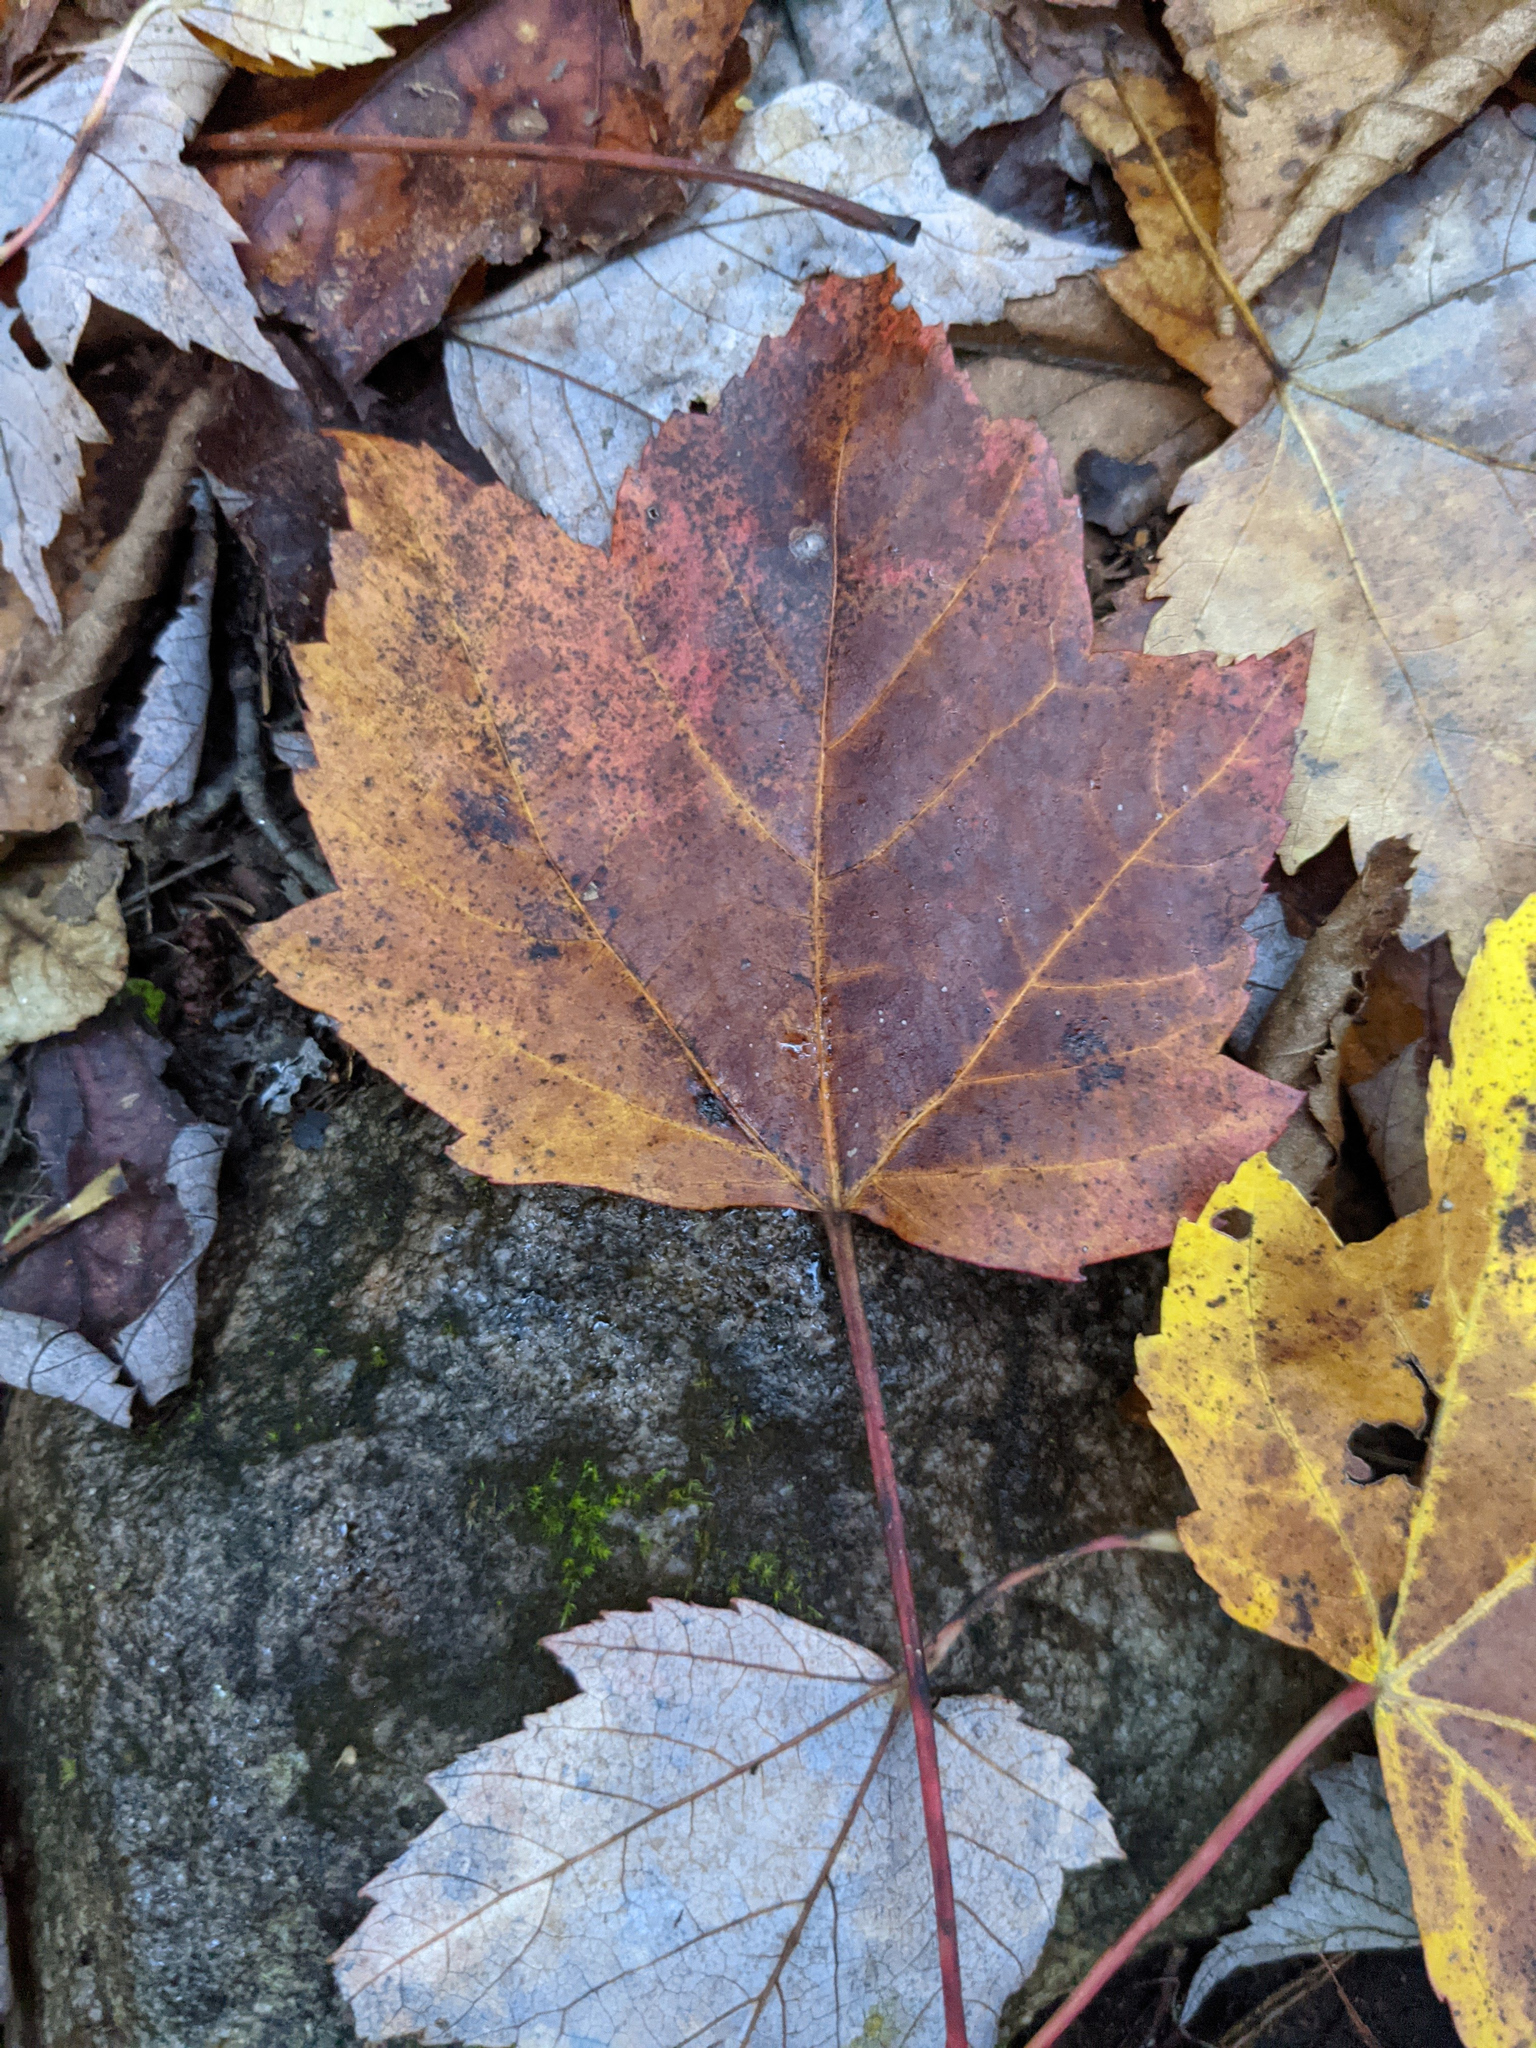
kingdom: Plantae
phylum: Tracheophyta
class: Magnoliopsida
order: Sapindales
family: Sapindaceae
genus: Acer
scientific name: Acer rubrum
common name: Red maple
